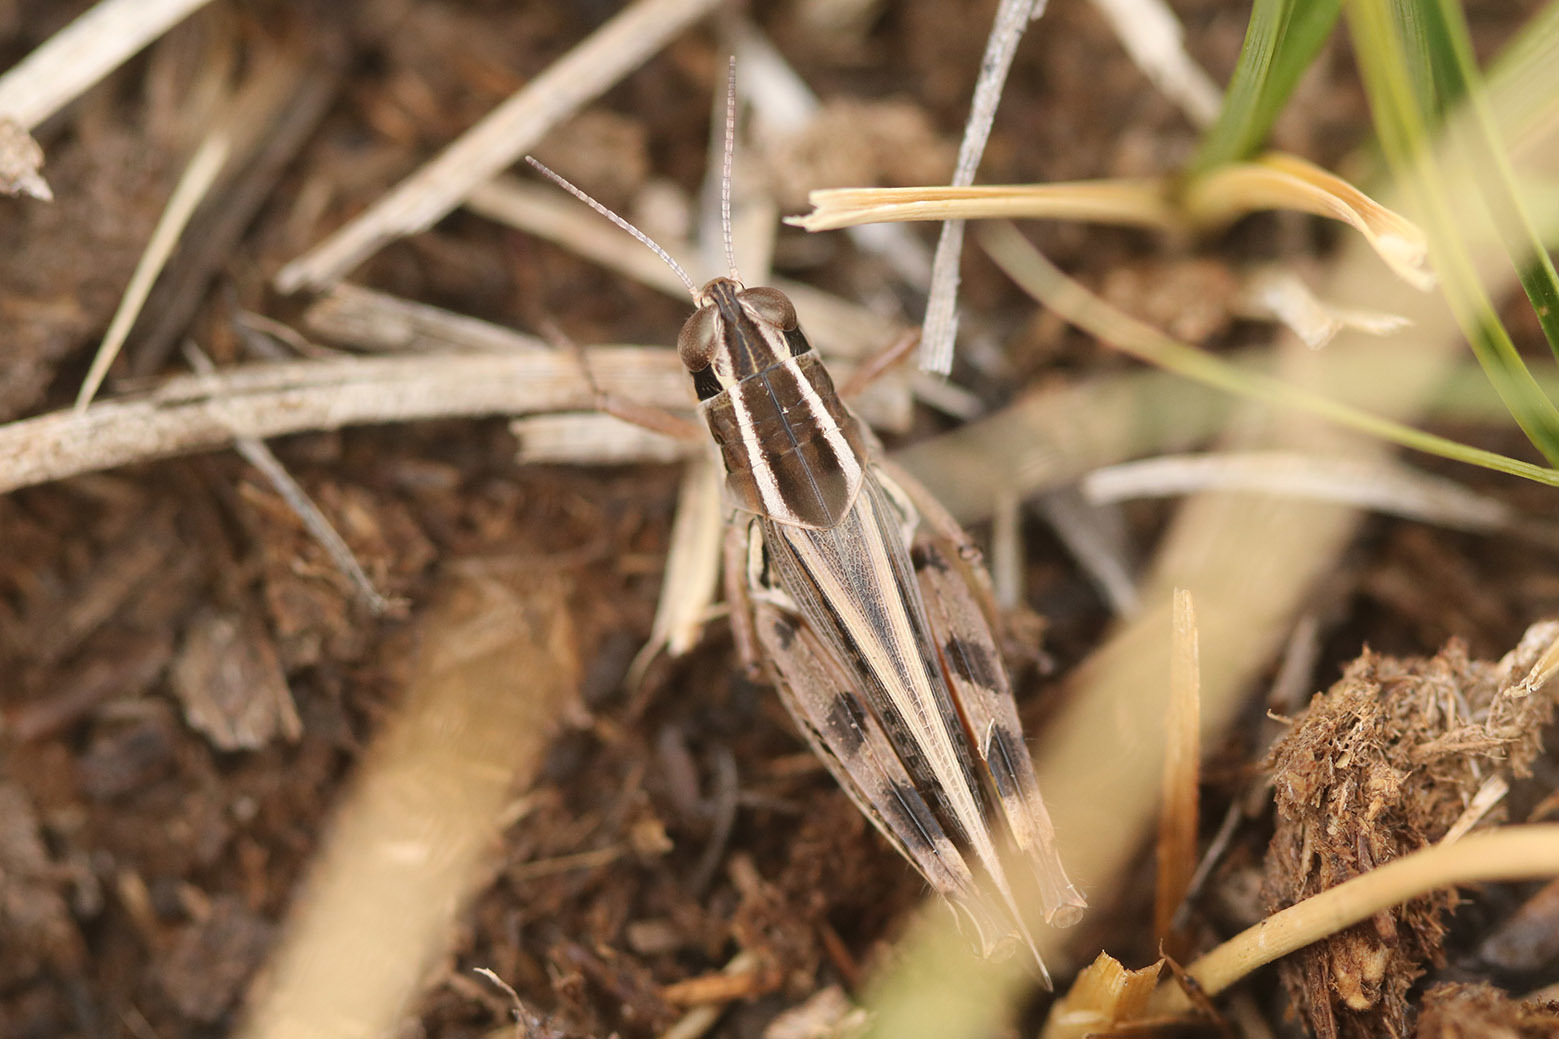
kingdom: Animalia
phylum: Arthropoda
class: Insecta
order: Orthoptera
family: Acrididae
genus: Dichroplus
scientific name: Dichroplus pratensis
